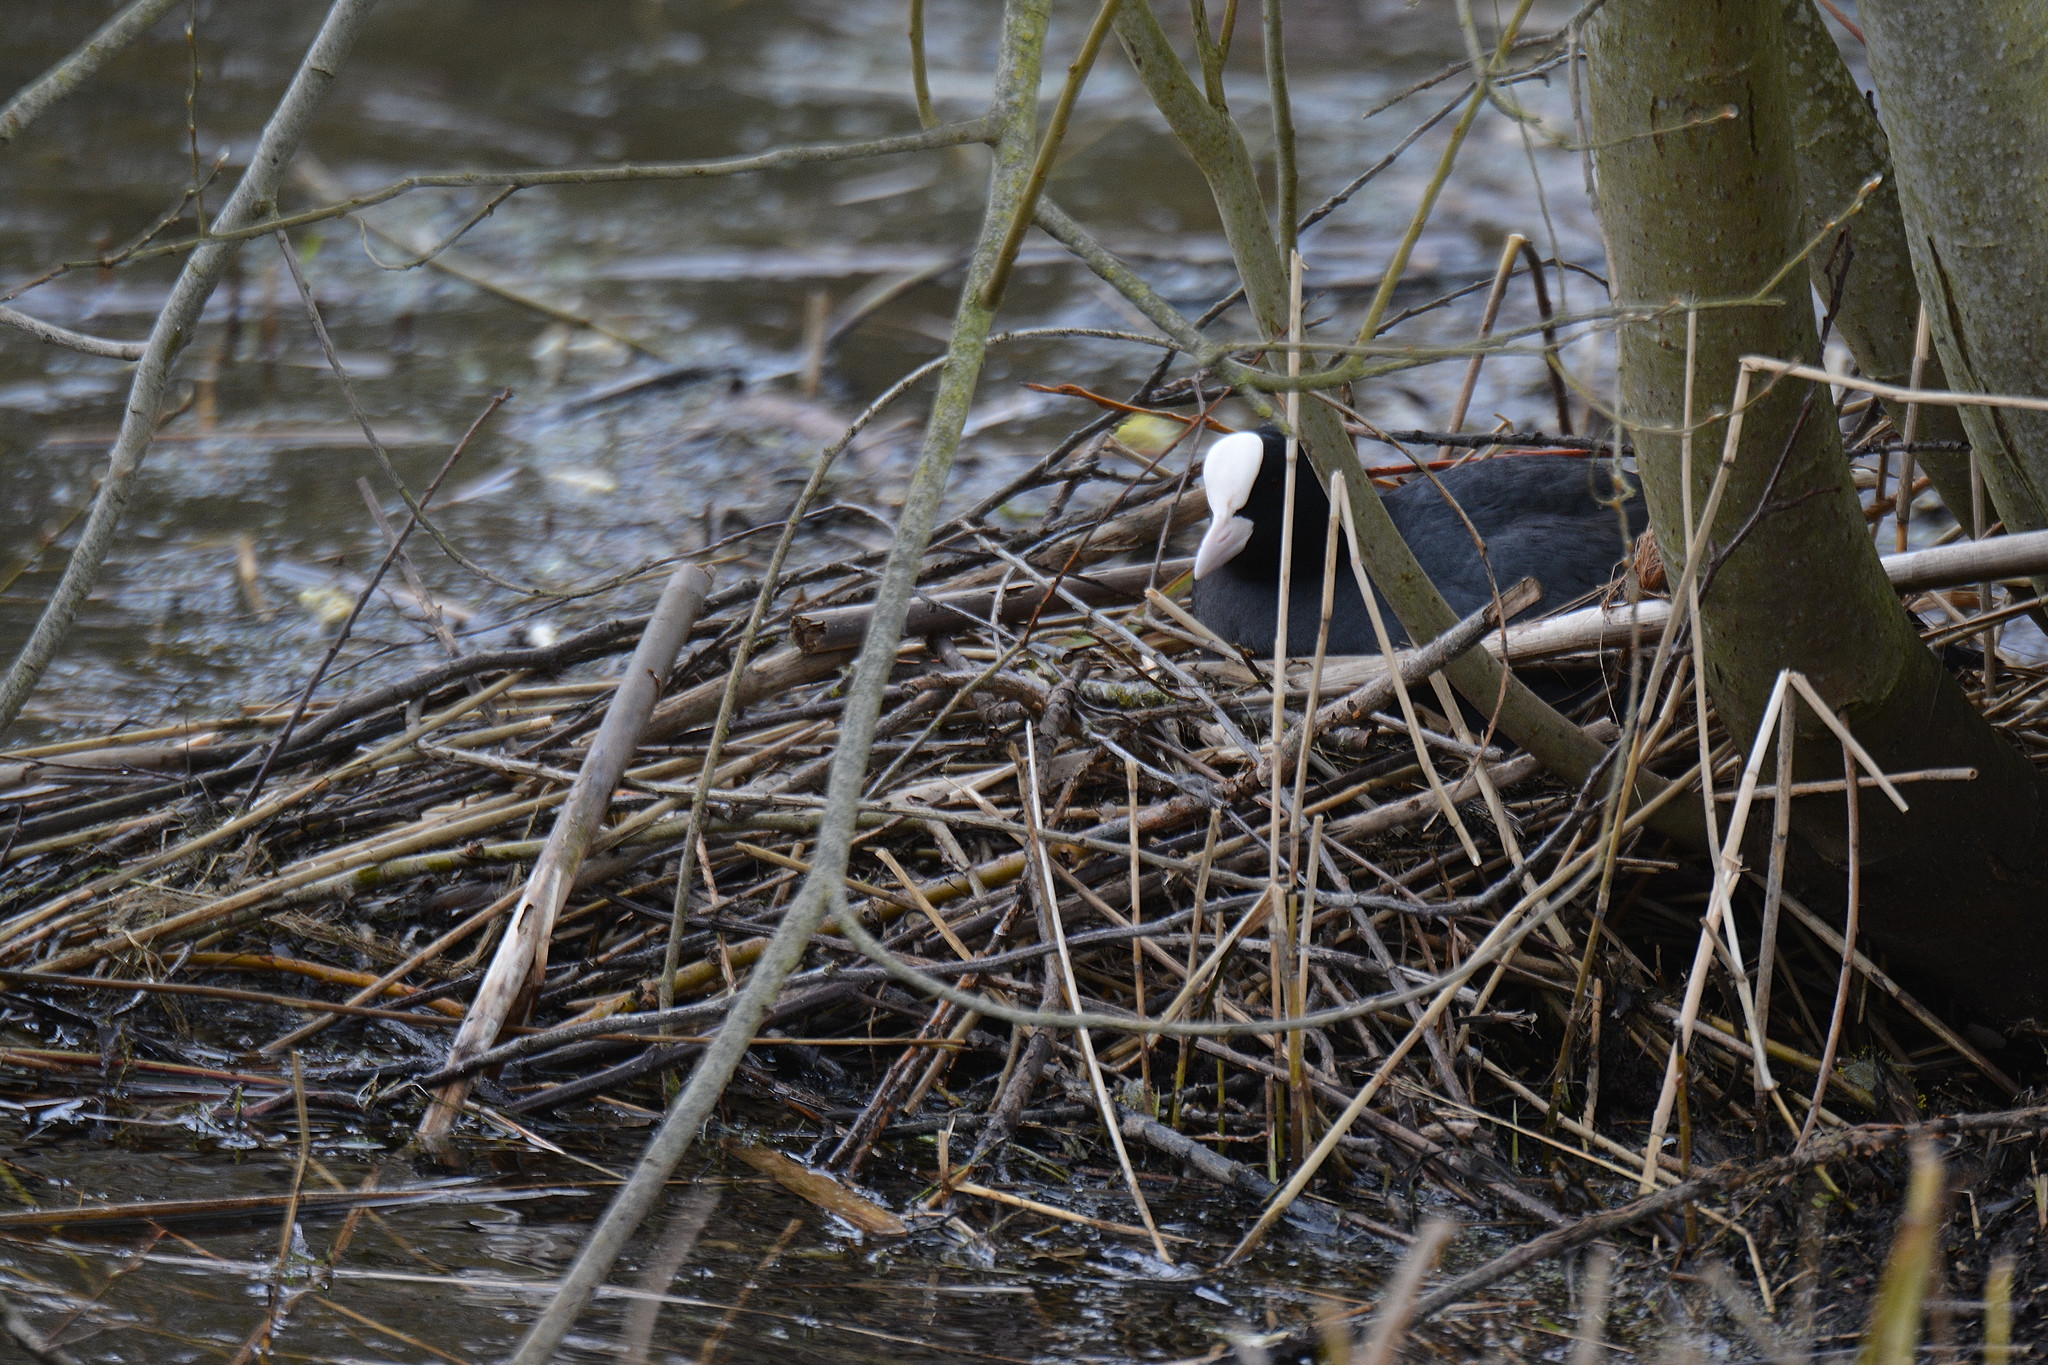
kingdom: Animalia
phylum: Chordata
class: Aves
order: Gruiformes
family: Rallidae
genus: Fulica
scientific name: Fulica atra
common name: Eurasian coot
